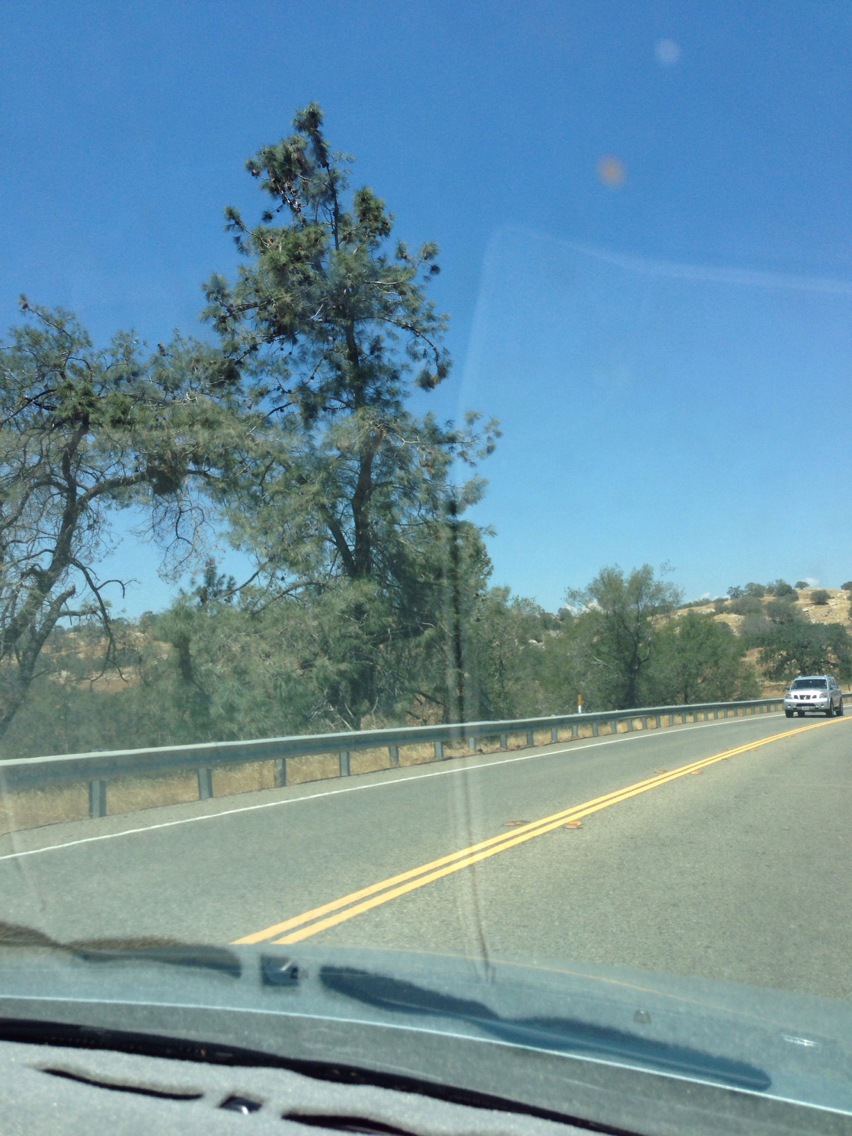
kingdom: Plantae
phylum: Tracheophyta
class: Pinopsida
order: Pinales
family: Pinaceae
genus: Pinus
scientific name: Pinus sabiniana
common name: Bull pine
